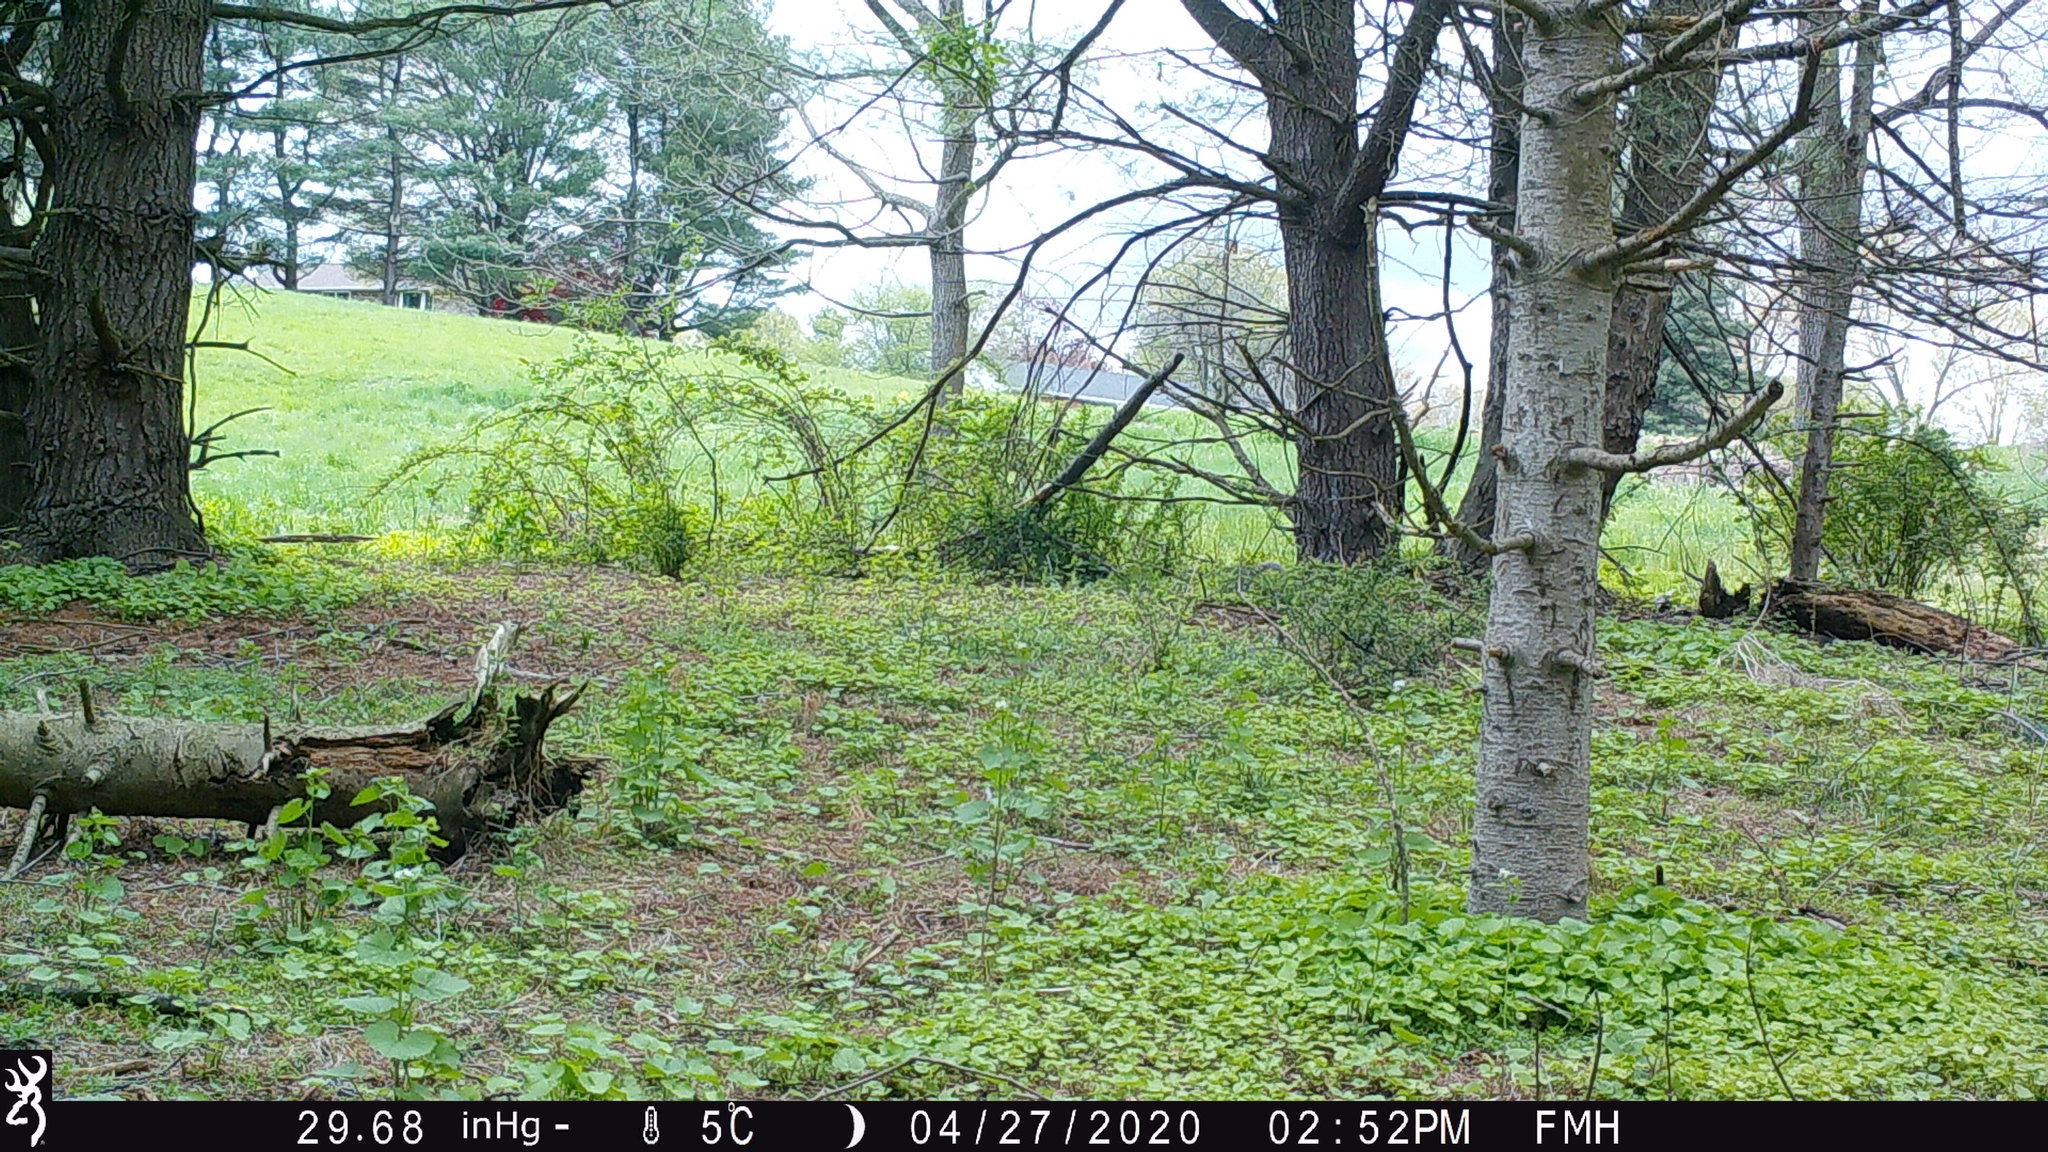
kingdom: Animalia
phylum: Chordata
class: Mammalia
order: Rodentia
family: Sciuridae
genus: Sciurus
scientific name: Sciurus carolinensis
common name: Eastern gray squirrel
